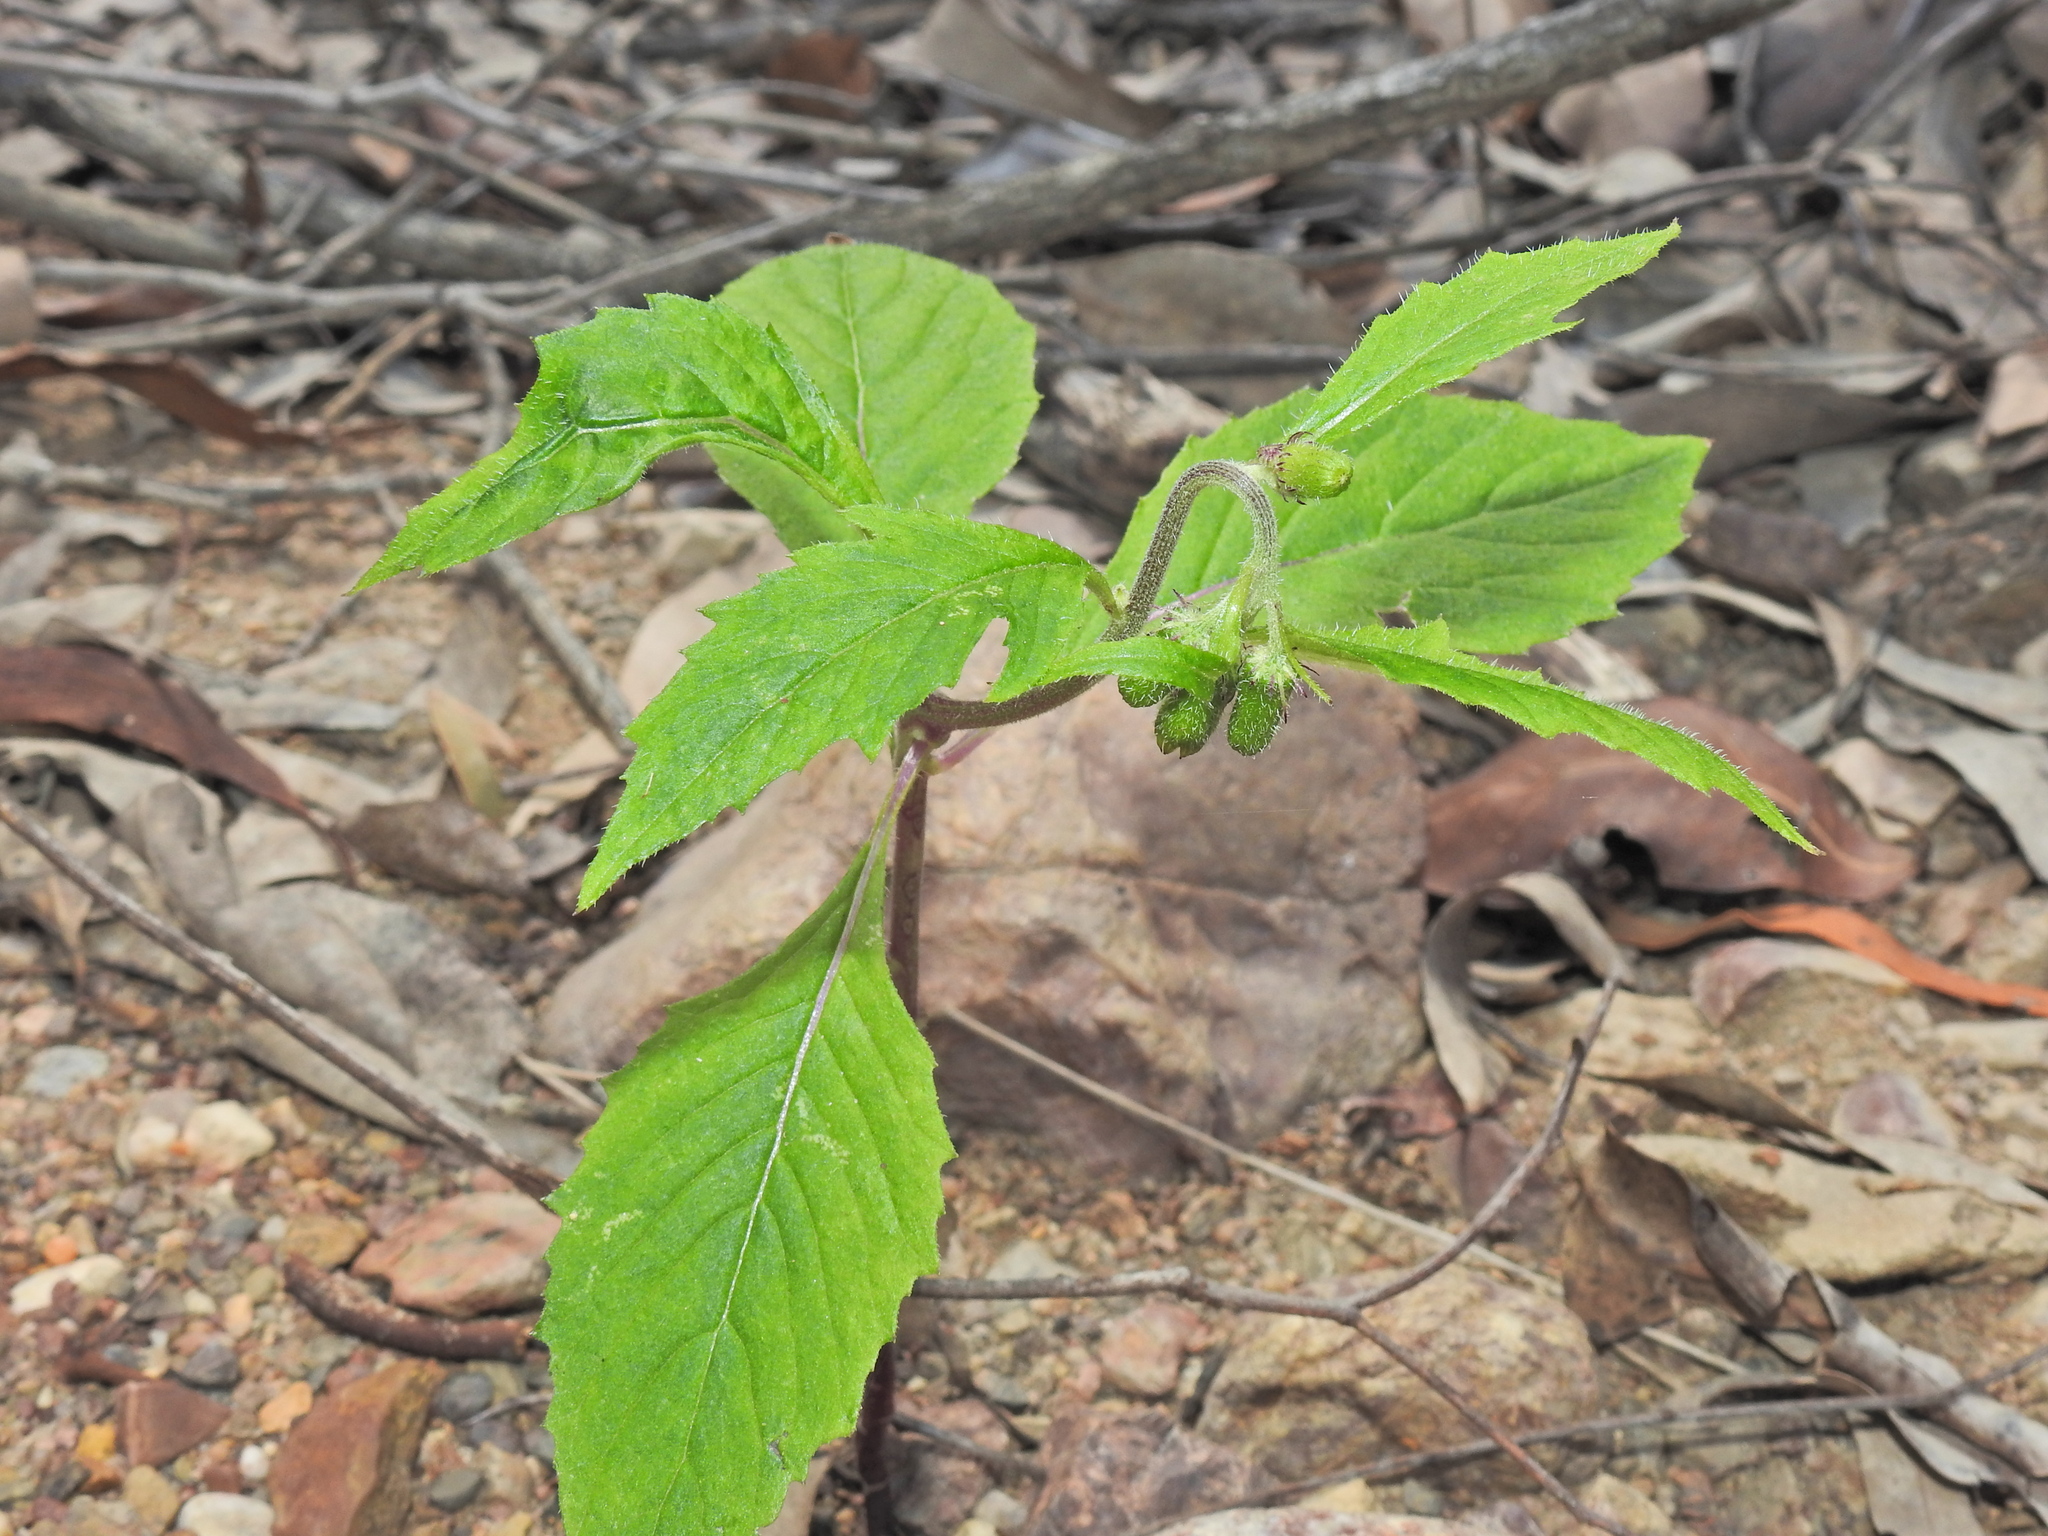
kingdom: Plantae
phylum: Tracheophyta
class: Magnoliopsida
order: Asterales
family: Asteraceae
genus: Crassocephalum
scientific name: Crassocephalum crepidioides
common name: Redflower ragleaf
